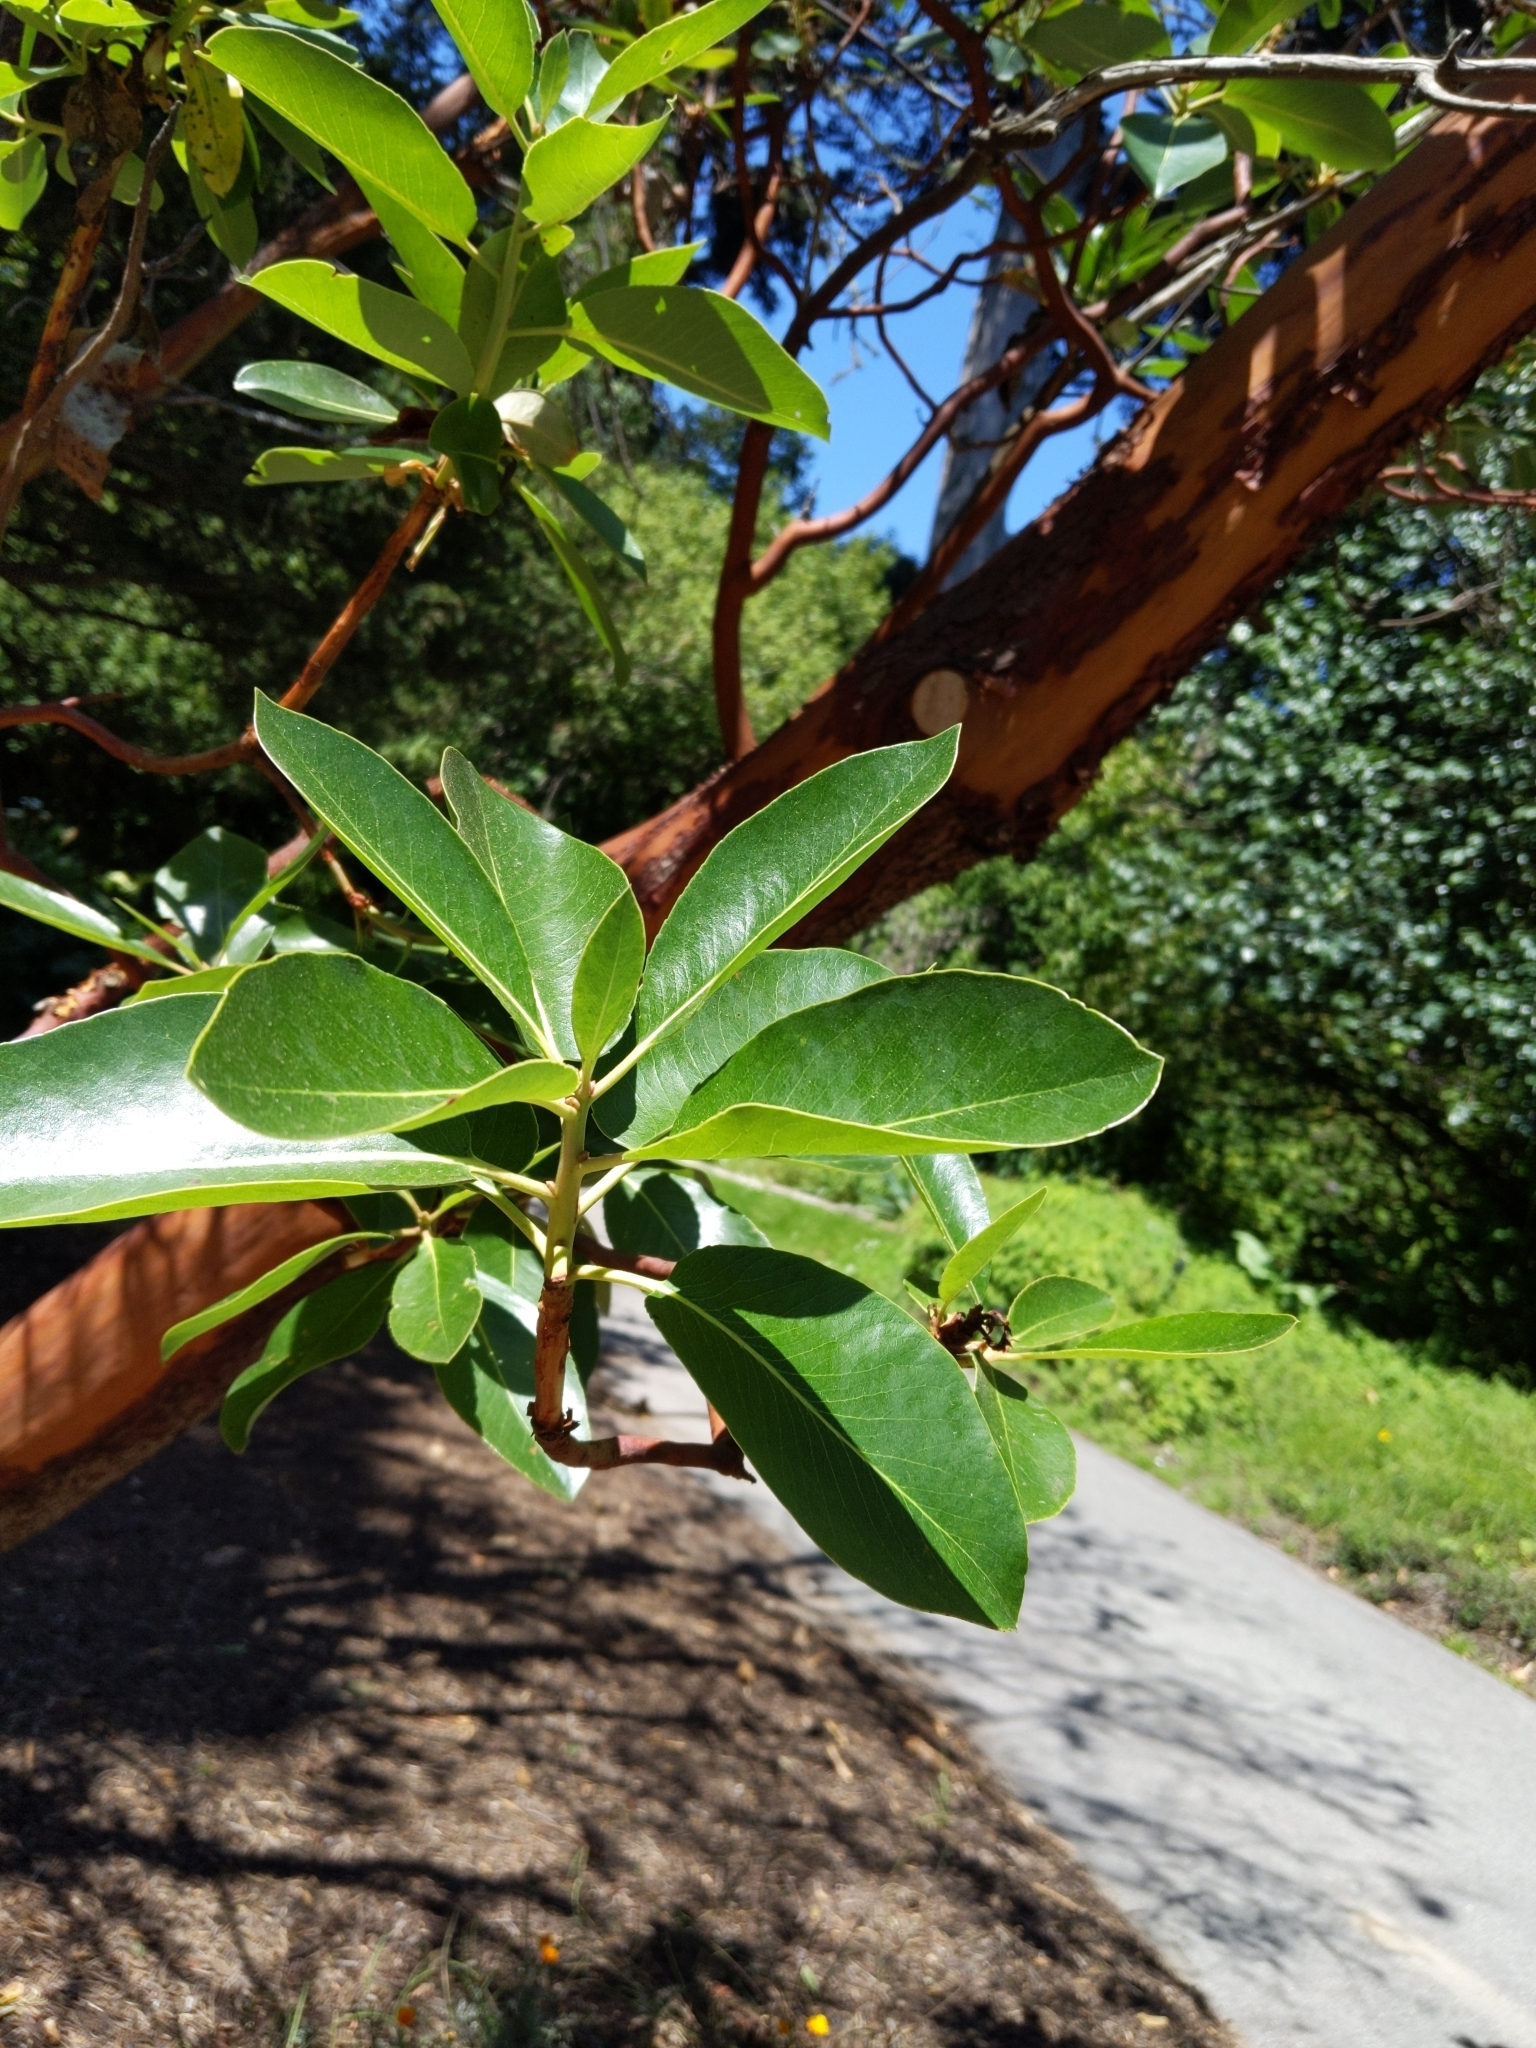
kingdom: Plantae
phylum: Tracheophyta
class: Magnoliopsida
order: Ericales
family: Ericaceae
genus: Arbutus
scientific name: Arbutus menziesii
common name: Pacific madrone
